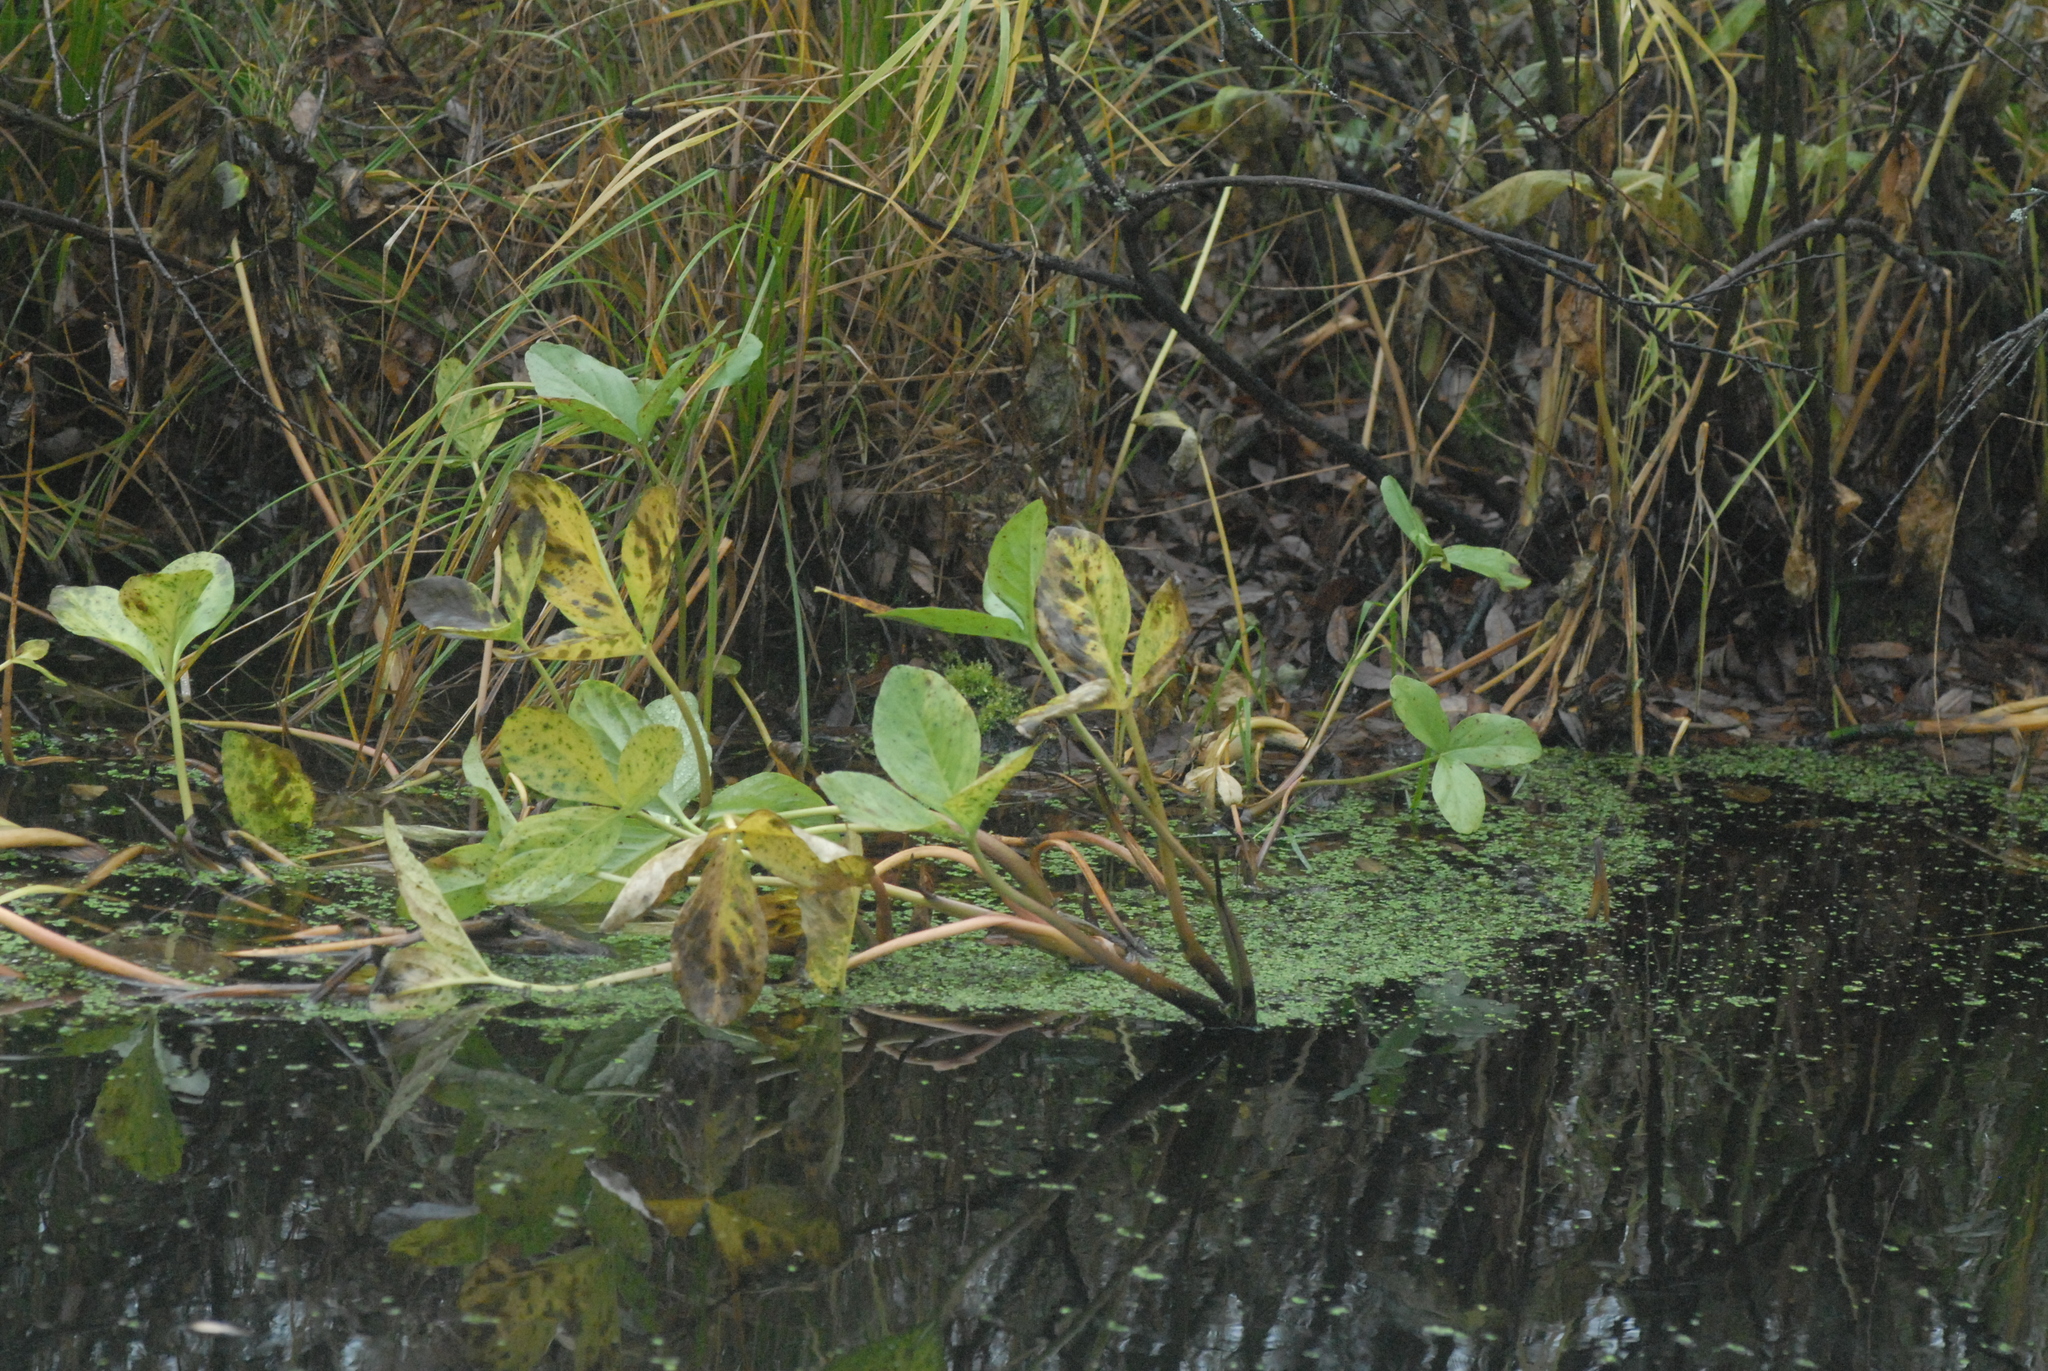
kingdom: Plantae
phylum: Tracheophyta
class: Magnoliopsida
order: Asterales
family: Menyanthaceae
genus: Menyanthes
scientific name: Menyanthes trifoliata
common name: Bogbean
